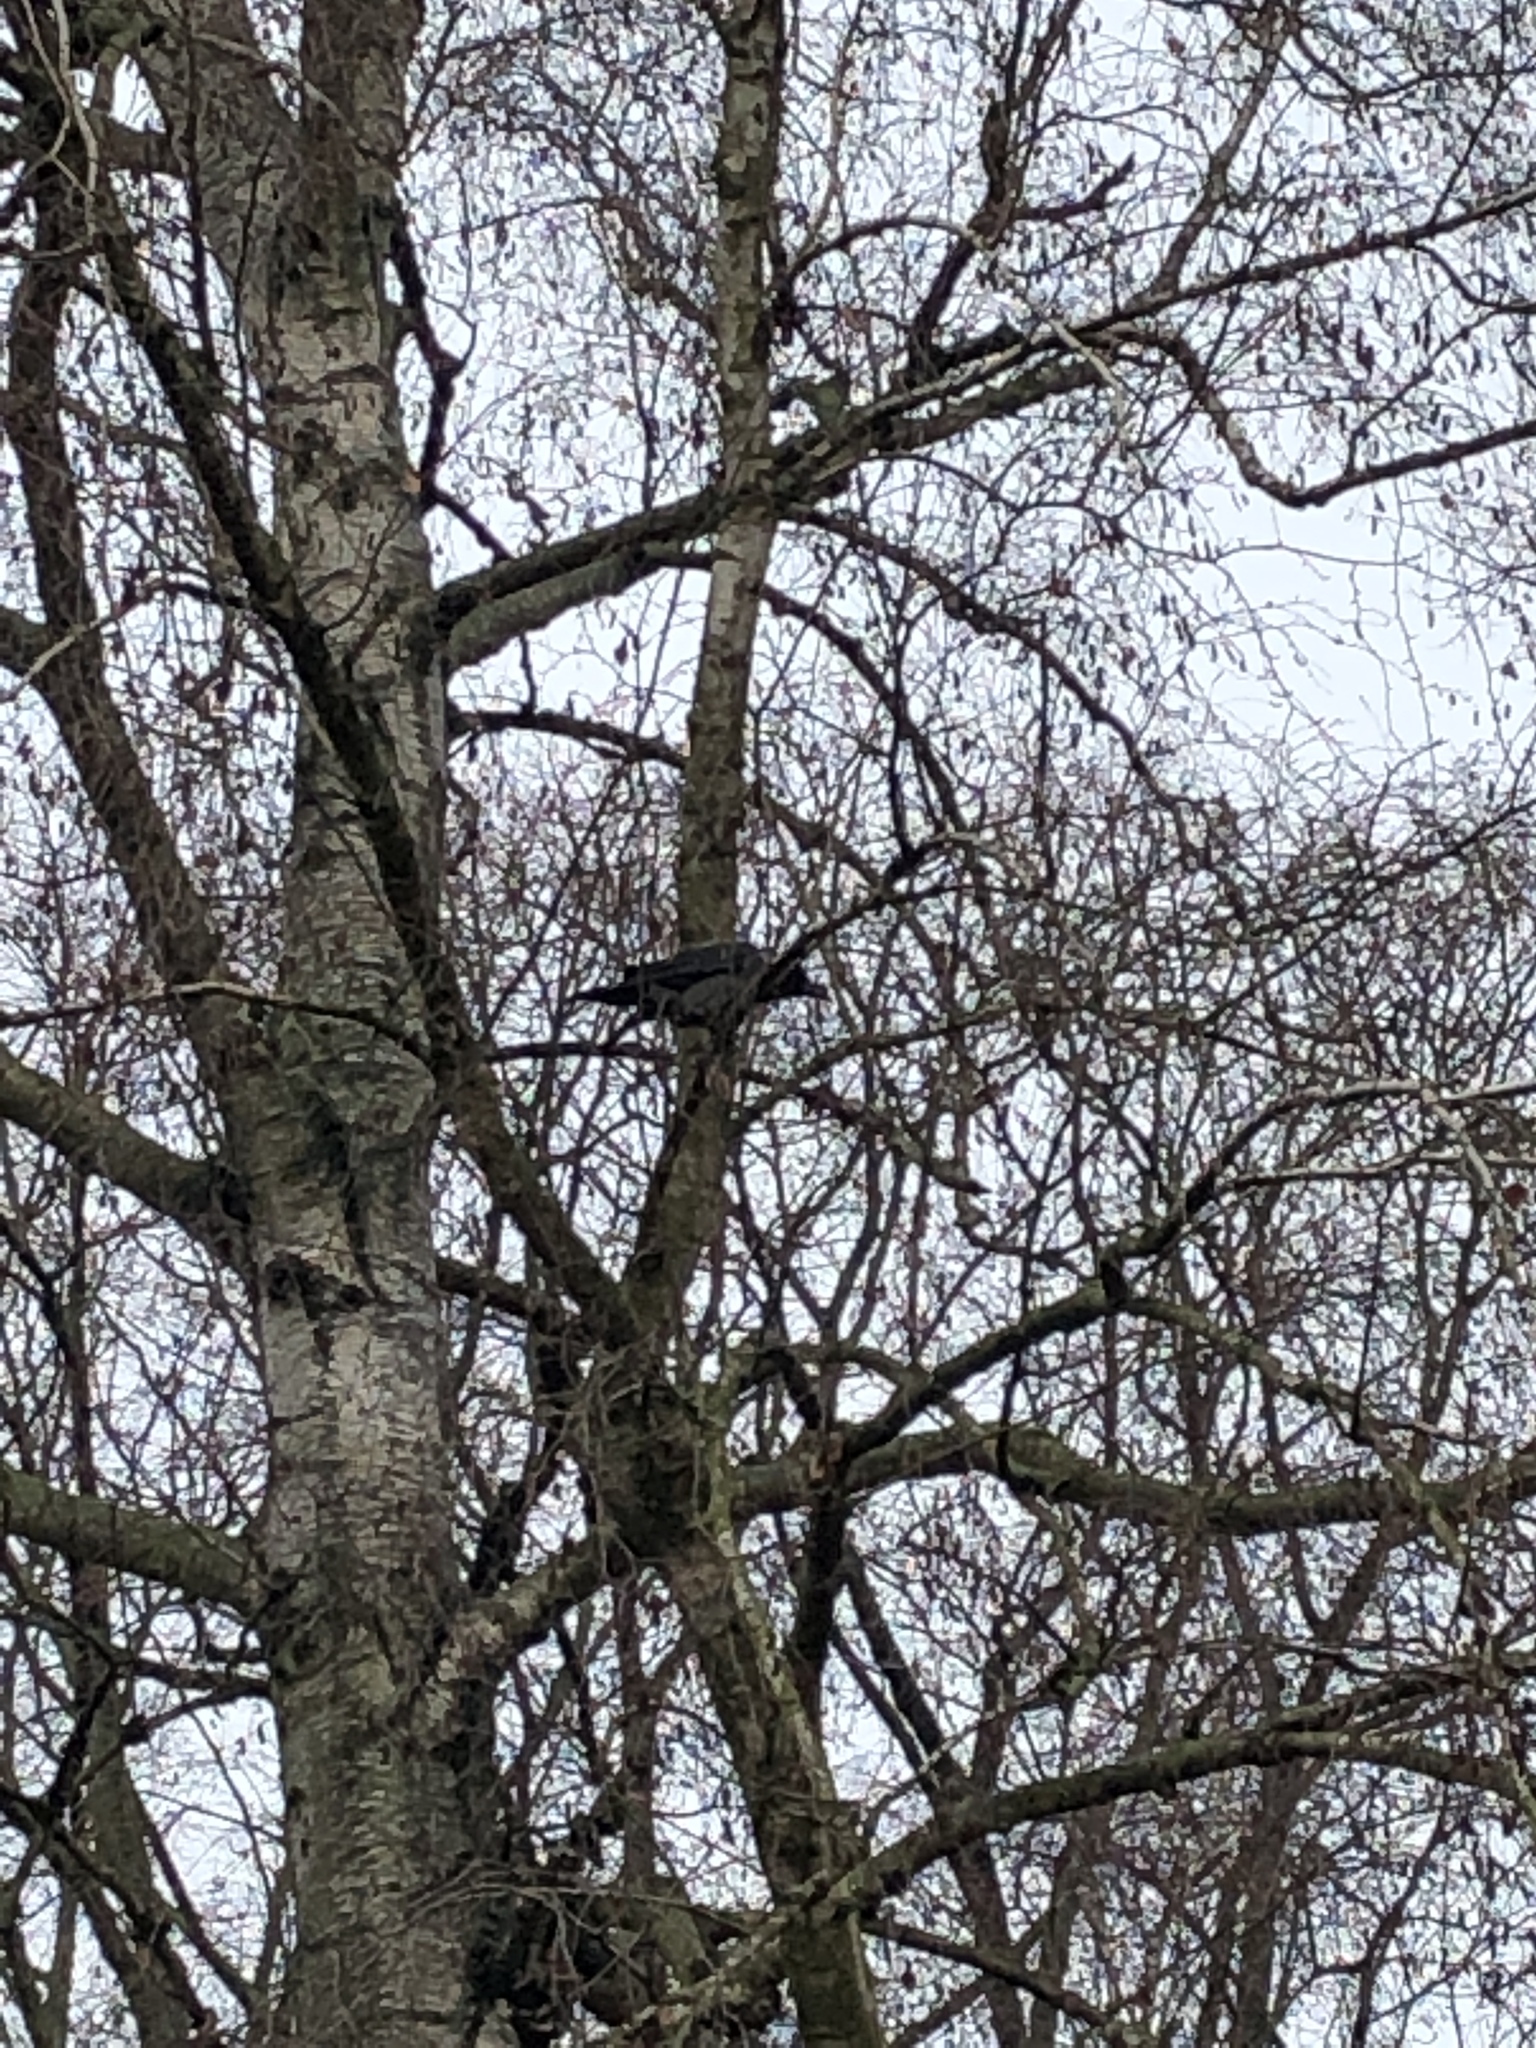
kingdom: Animalia
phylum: Chordata
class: Aves
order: Passeriformes
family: Corvidae
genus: Corvus
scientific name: Corvus cornix
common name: Hooded crow
